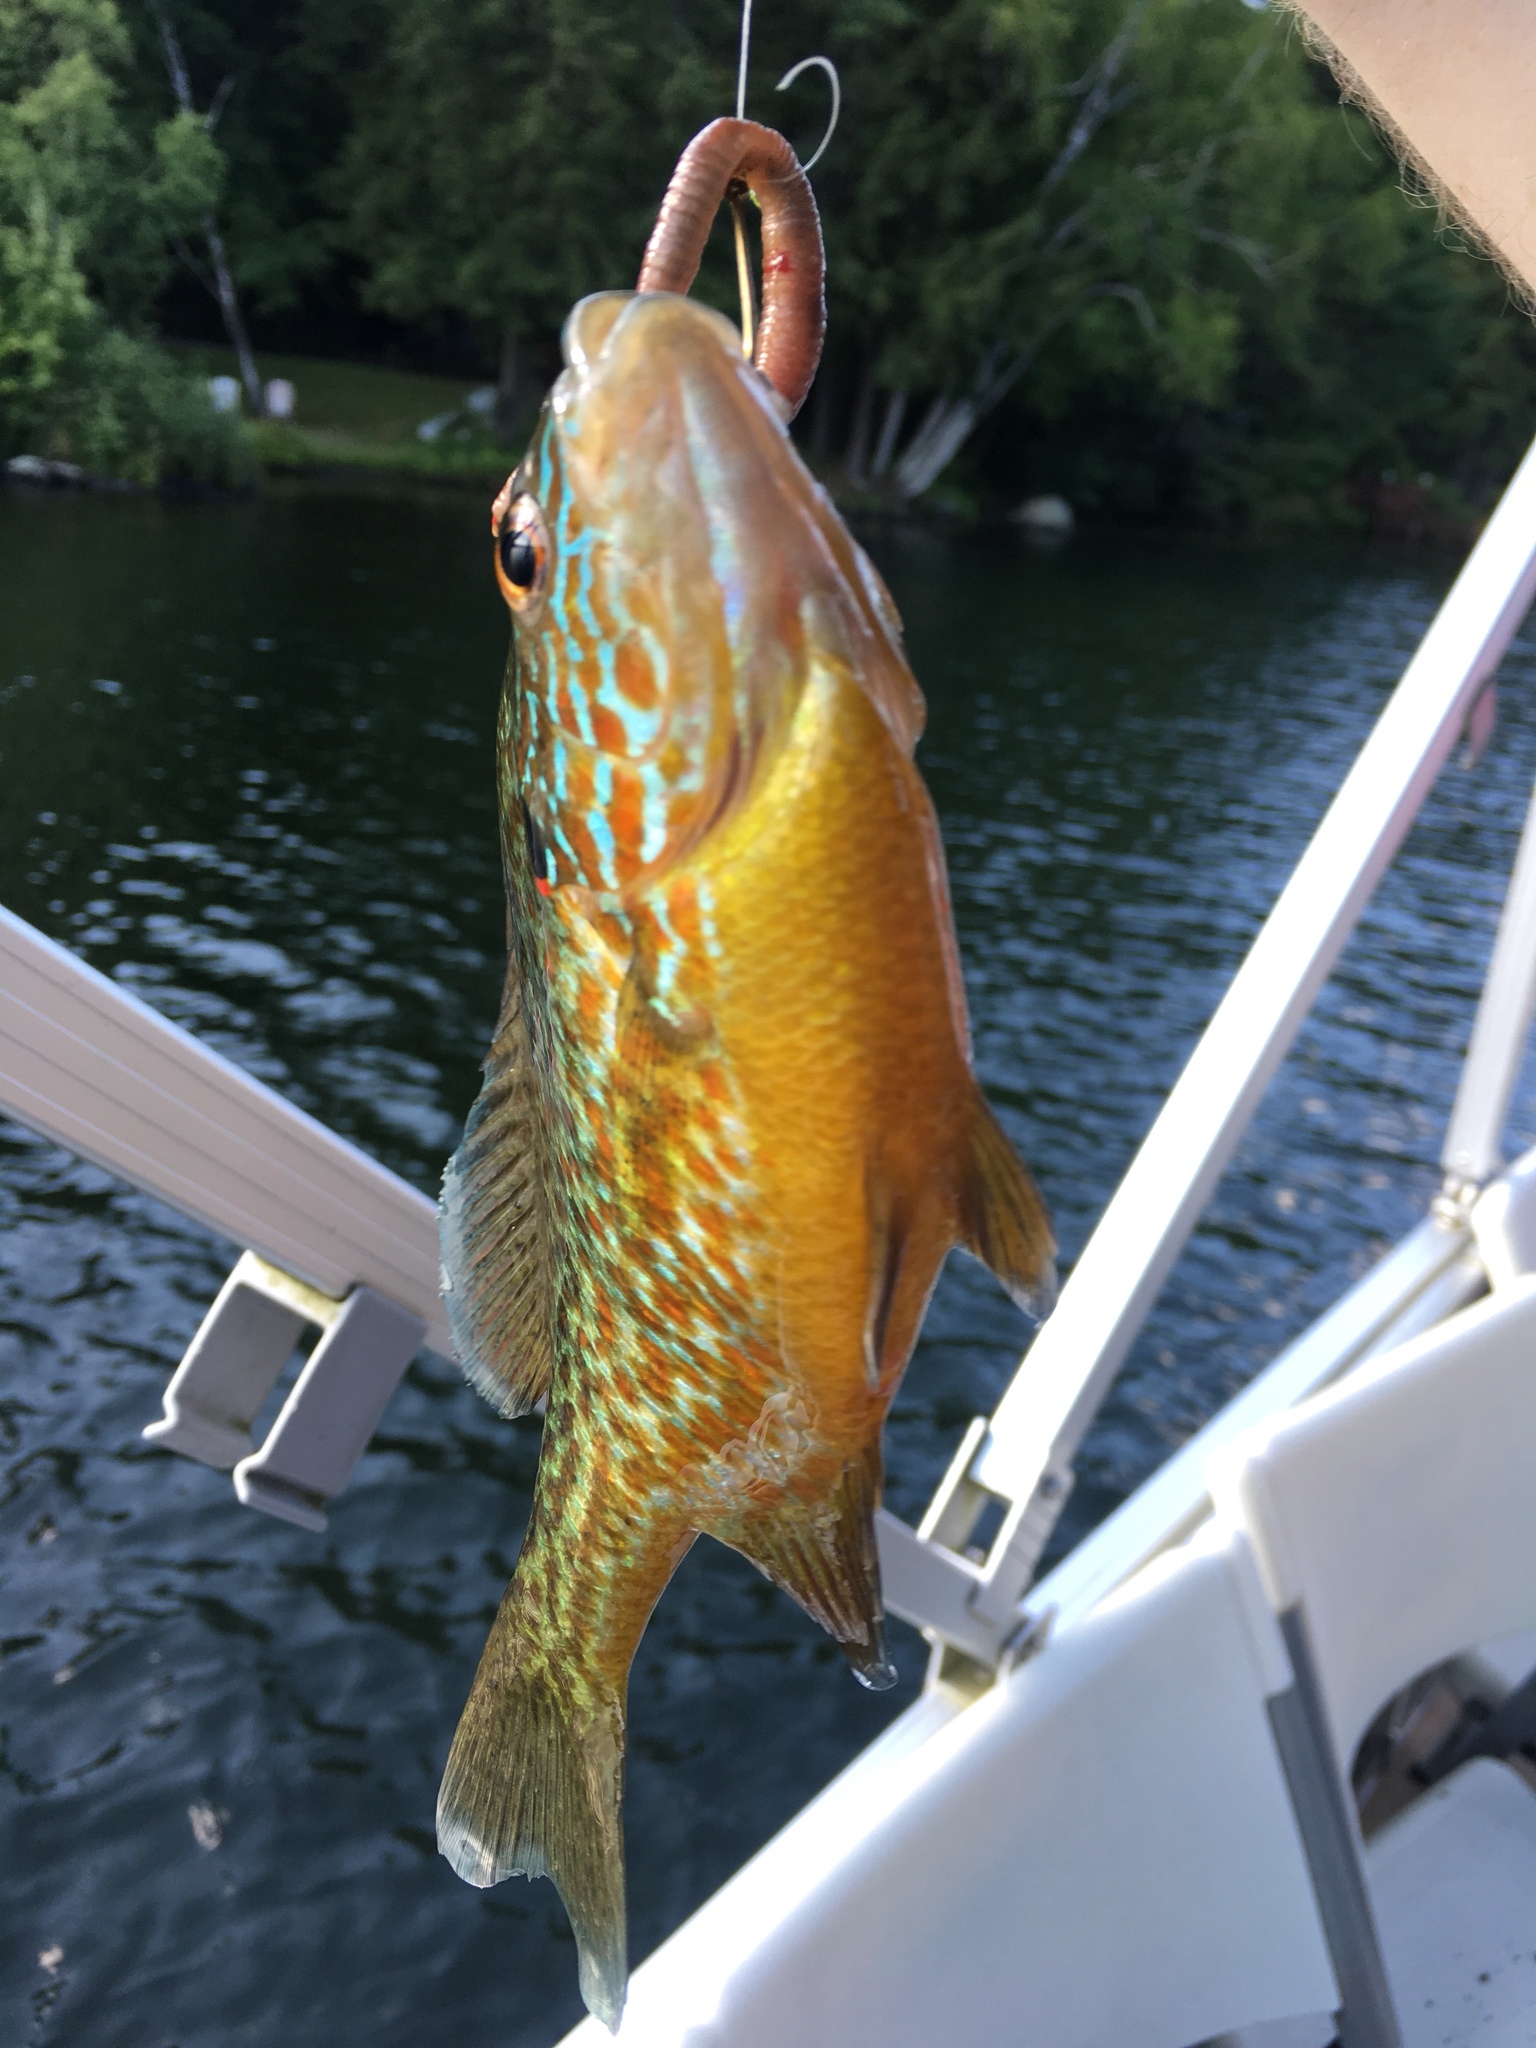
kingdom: Animalia
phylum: Chordata
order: Perciformes
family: Centrarchidae
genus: Lepomis
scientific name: Lepomis gibbosus
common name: Pumpkinseed
